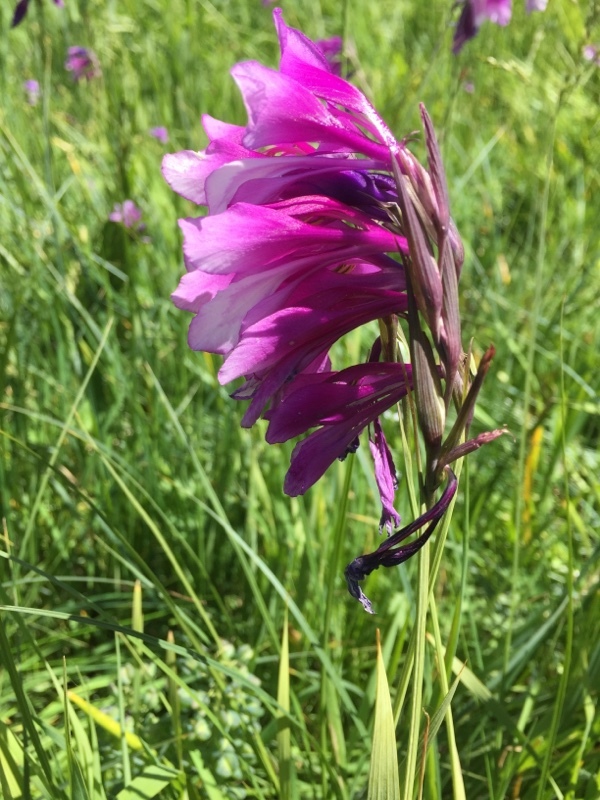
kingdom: Plantae
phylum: Tracheophyta
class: Liliopsida
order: Asparagales
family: Iridaceae
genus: Gladiolus
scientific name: Gladiolus kotschyanus
